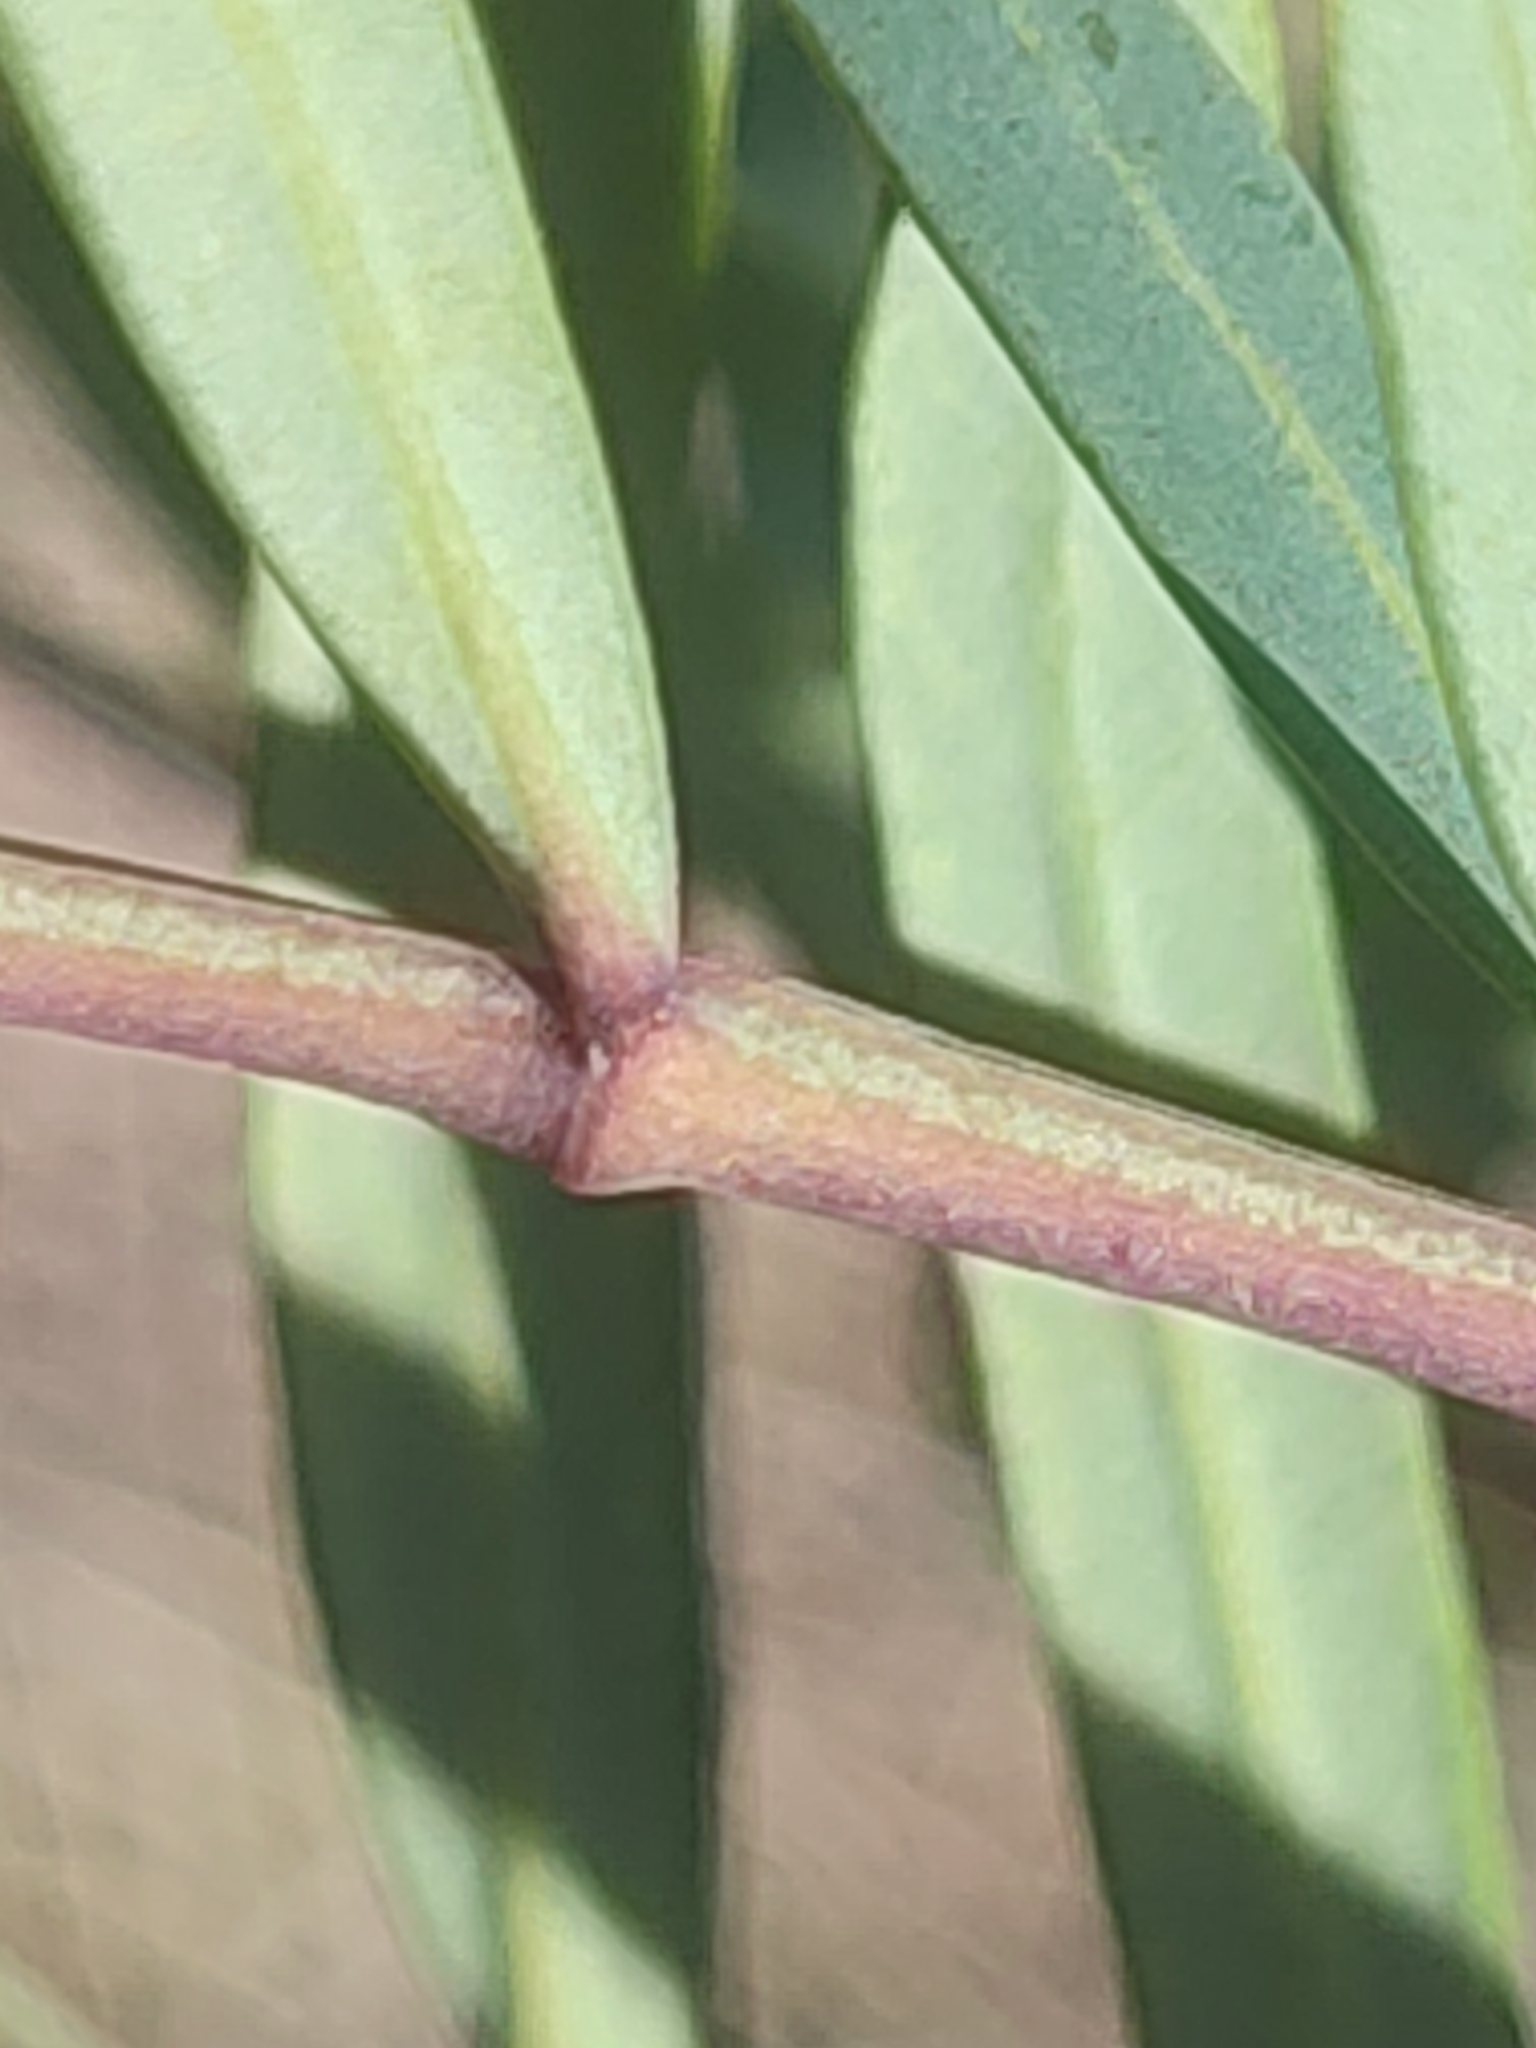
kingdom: Plantae
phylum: Tracheophyta
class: Magnoliopsida
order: Apiales
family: Araliaceae
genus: Polyscias
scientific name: Polyscias sambucifolia
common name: Elderberry-ash
